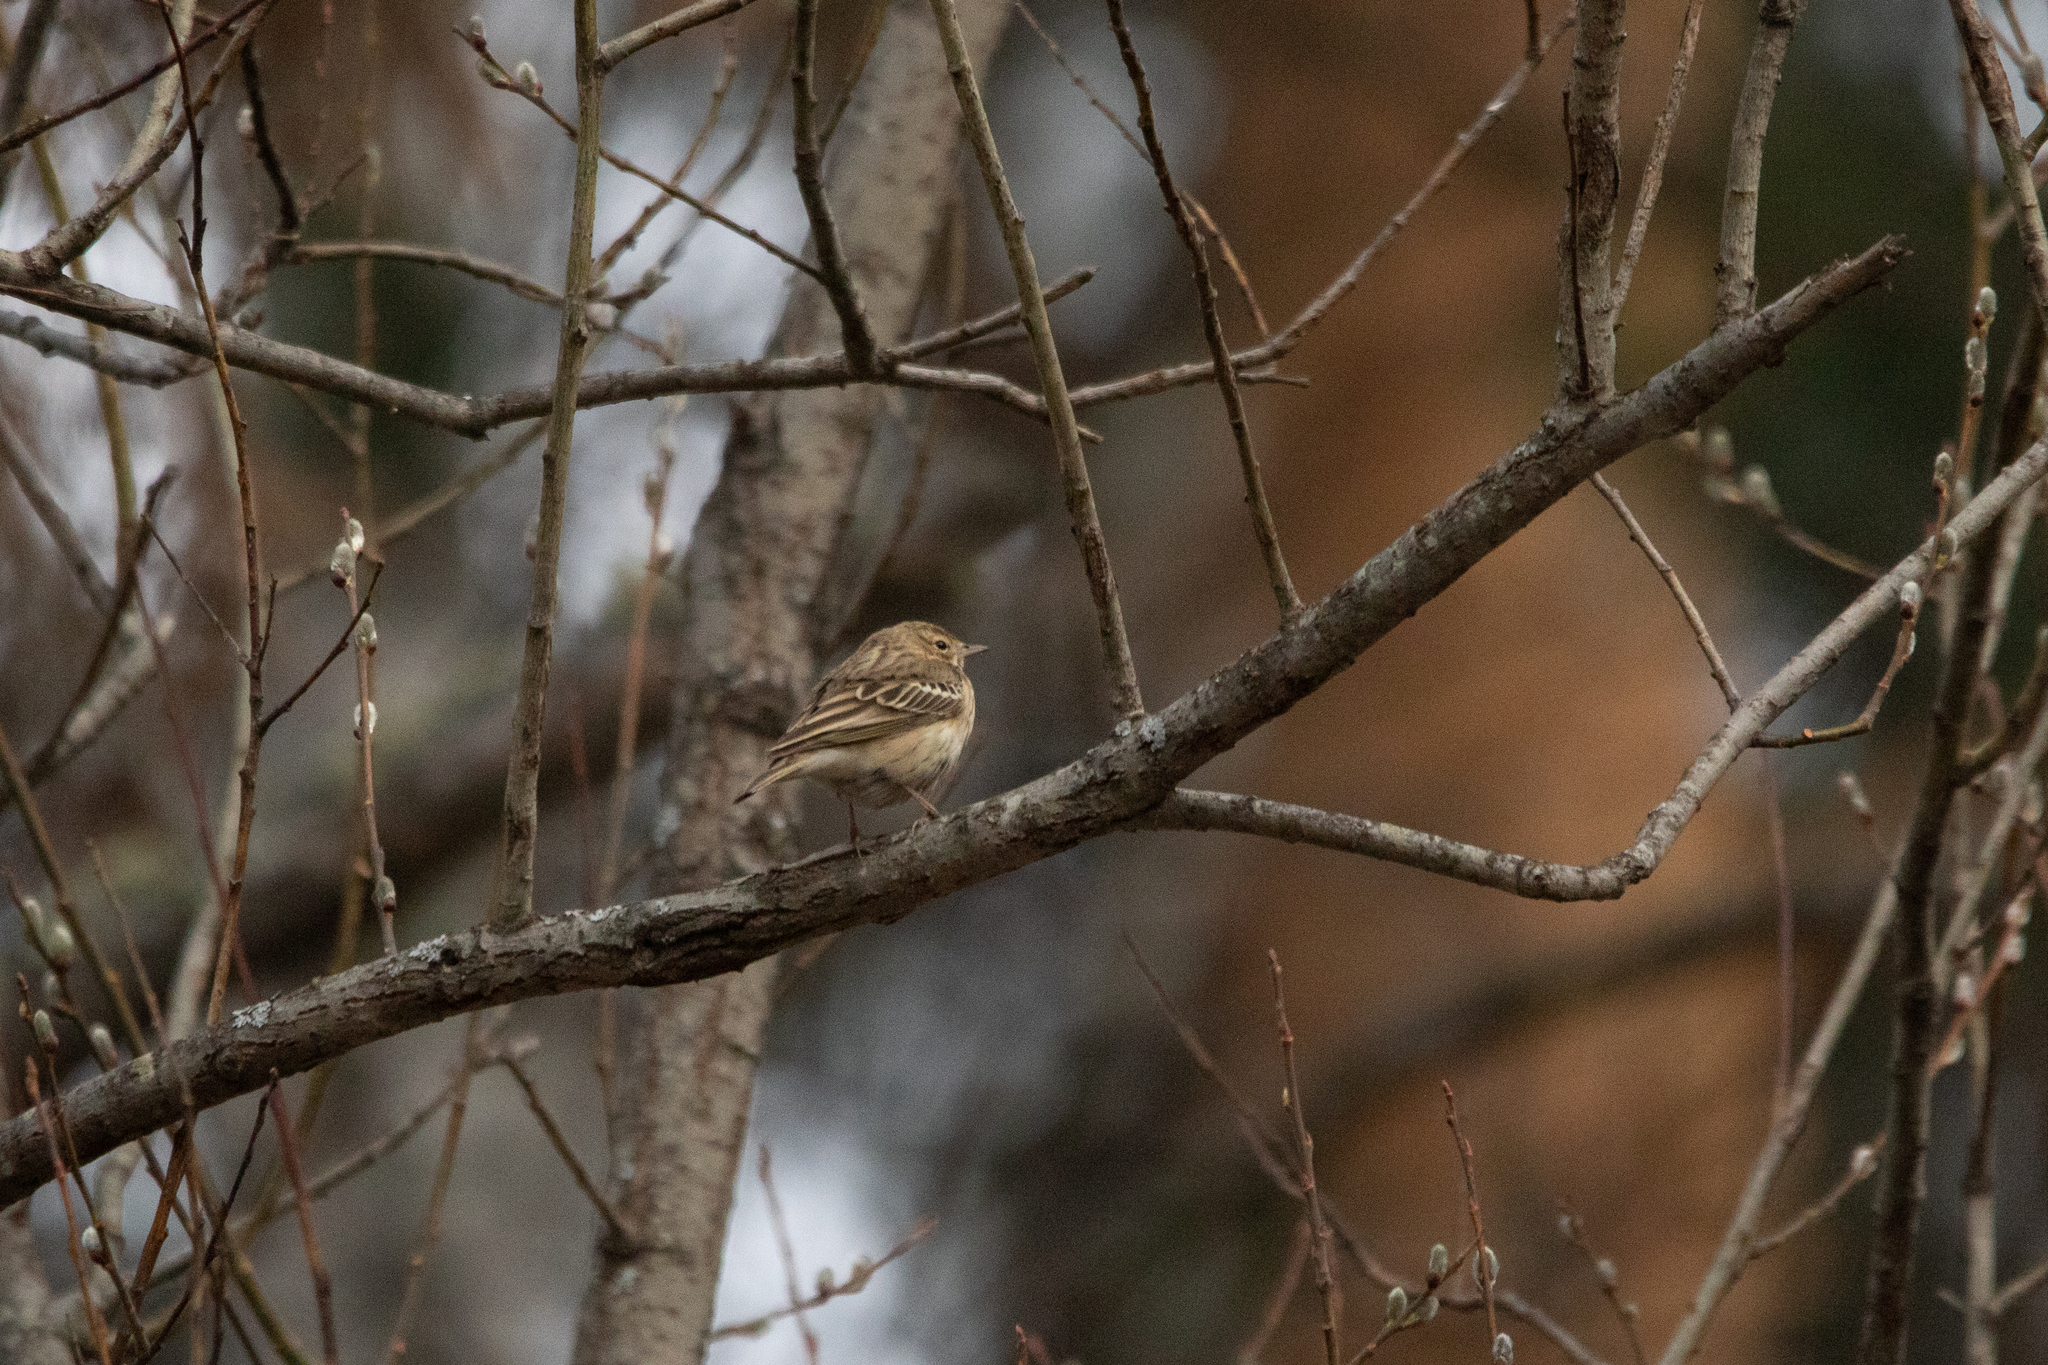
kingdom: Animalia
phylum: Chordata
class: Aves
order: Passeriformes
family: Motacillidae
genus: Anthus
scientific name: Anthus trivialis
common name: Tree pipit
